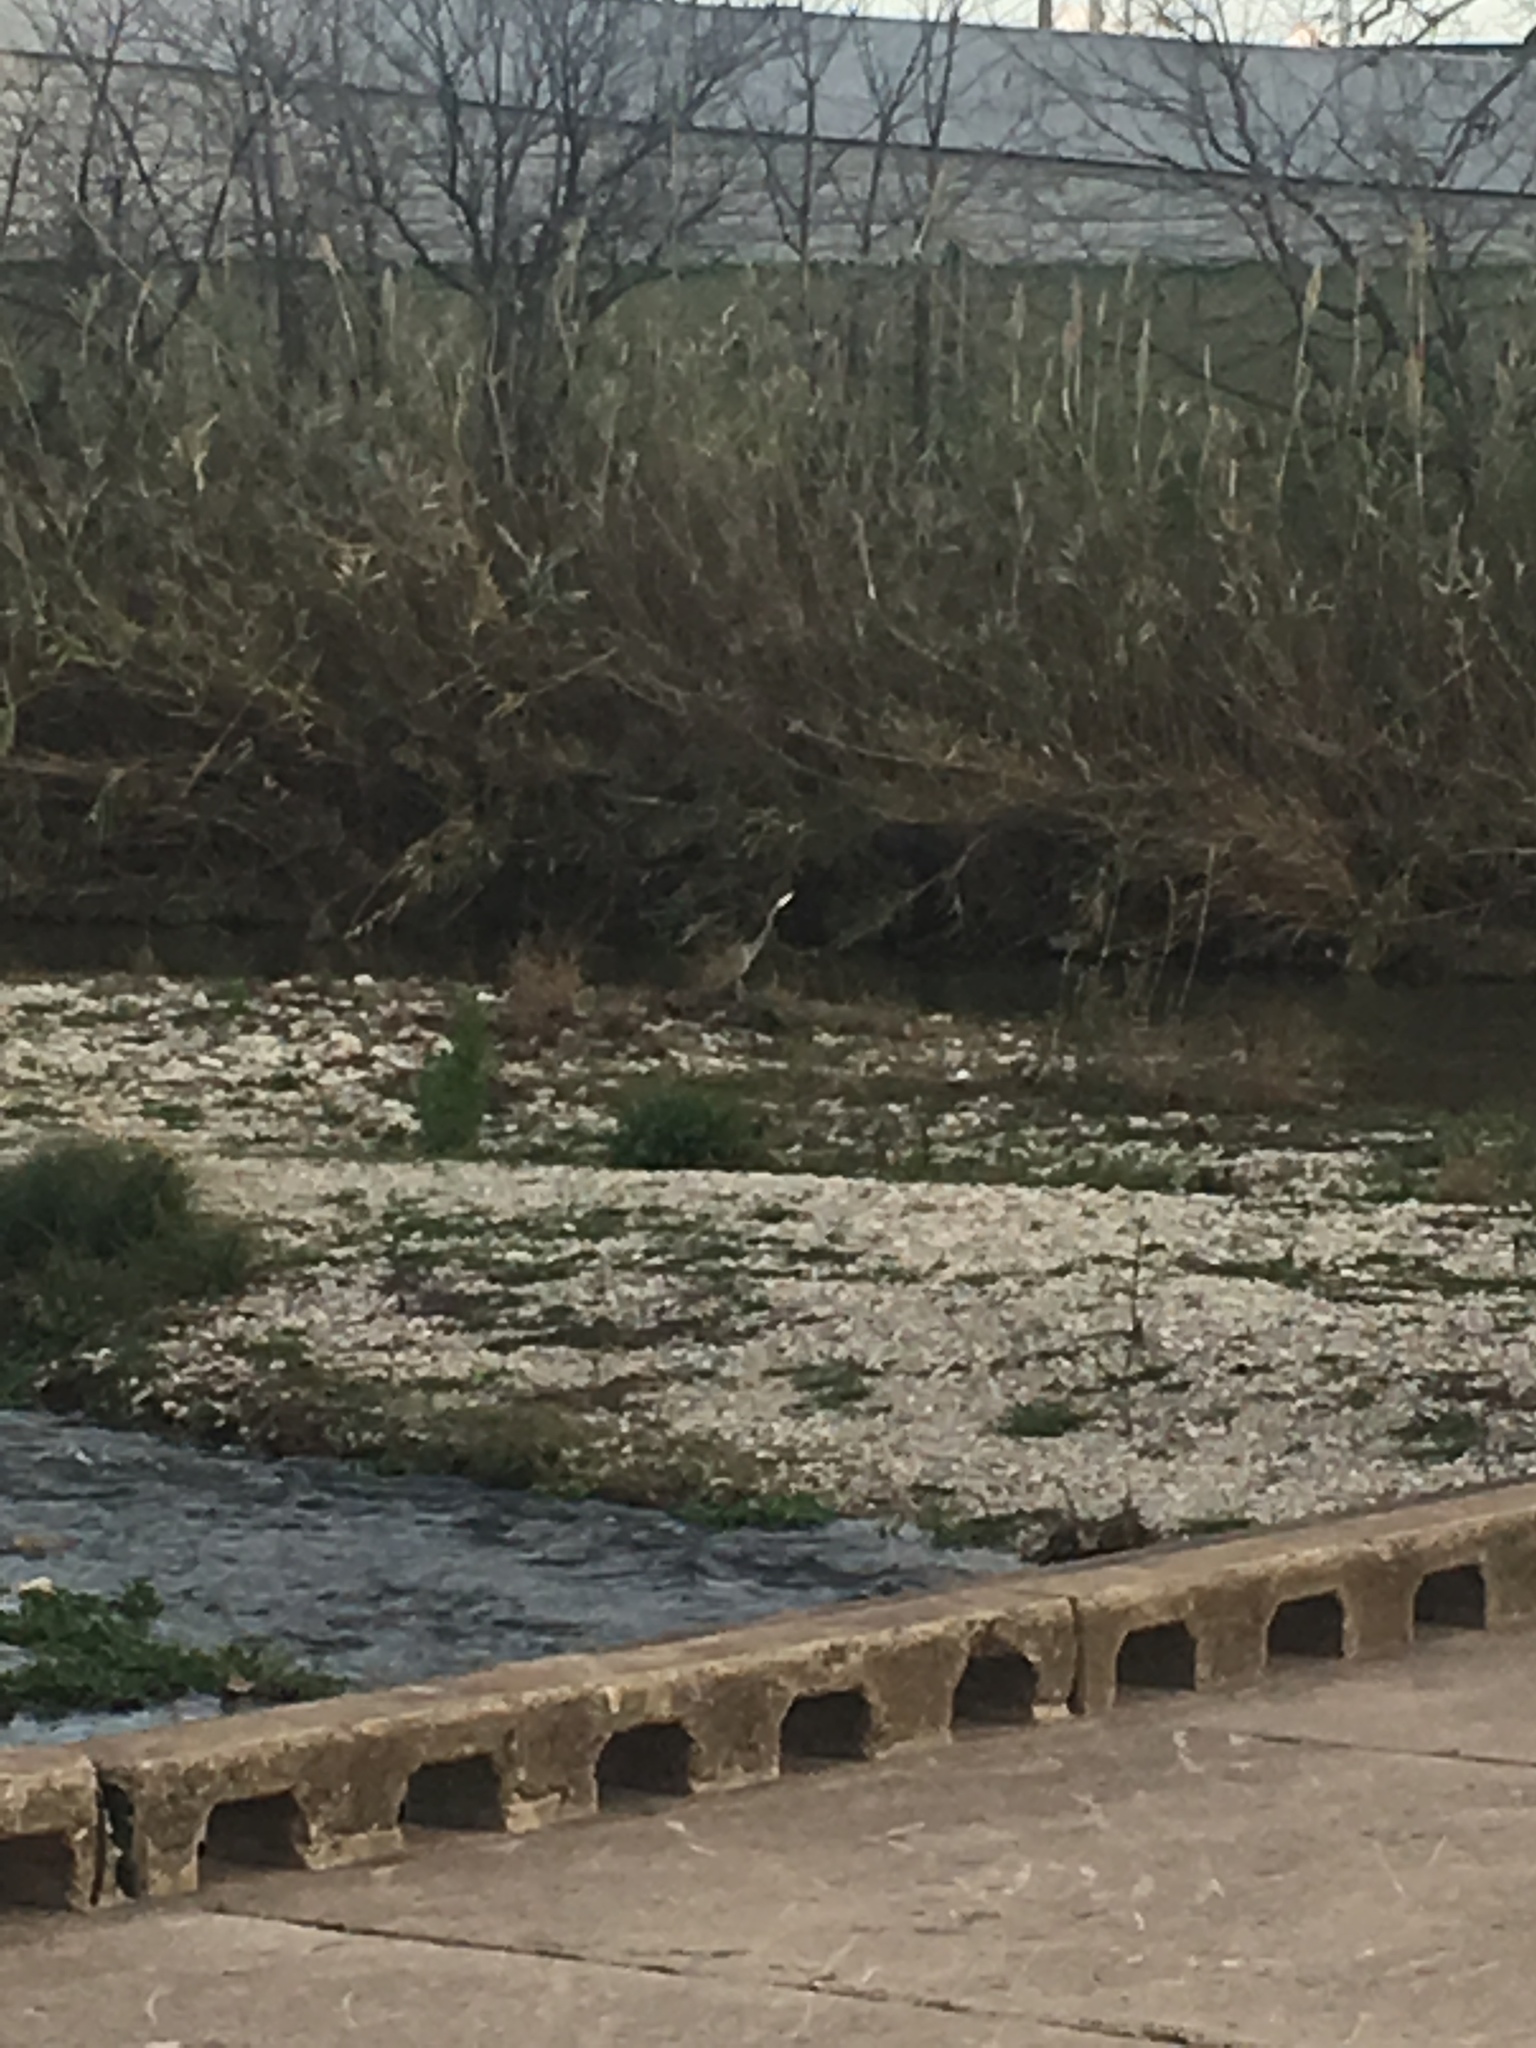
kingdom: Animalia
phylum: Chordata
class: Aves
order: Pelecaniformes
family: Ardeidae
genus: Ardea
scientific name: Ardea herodias
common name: Great blue heron
